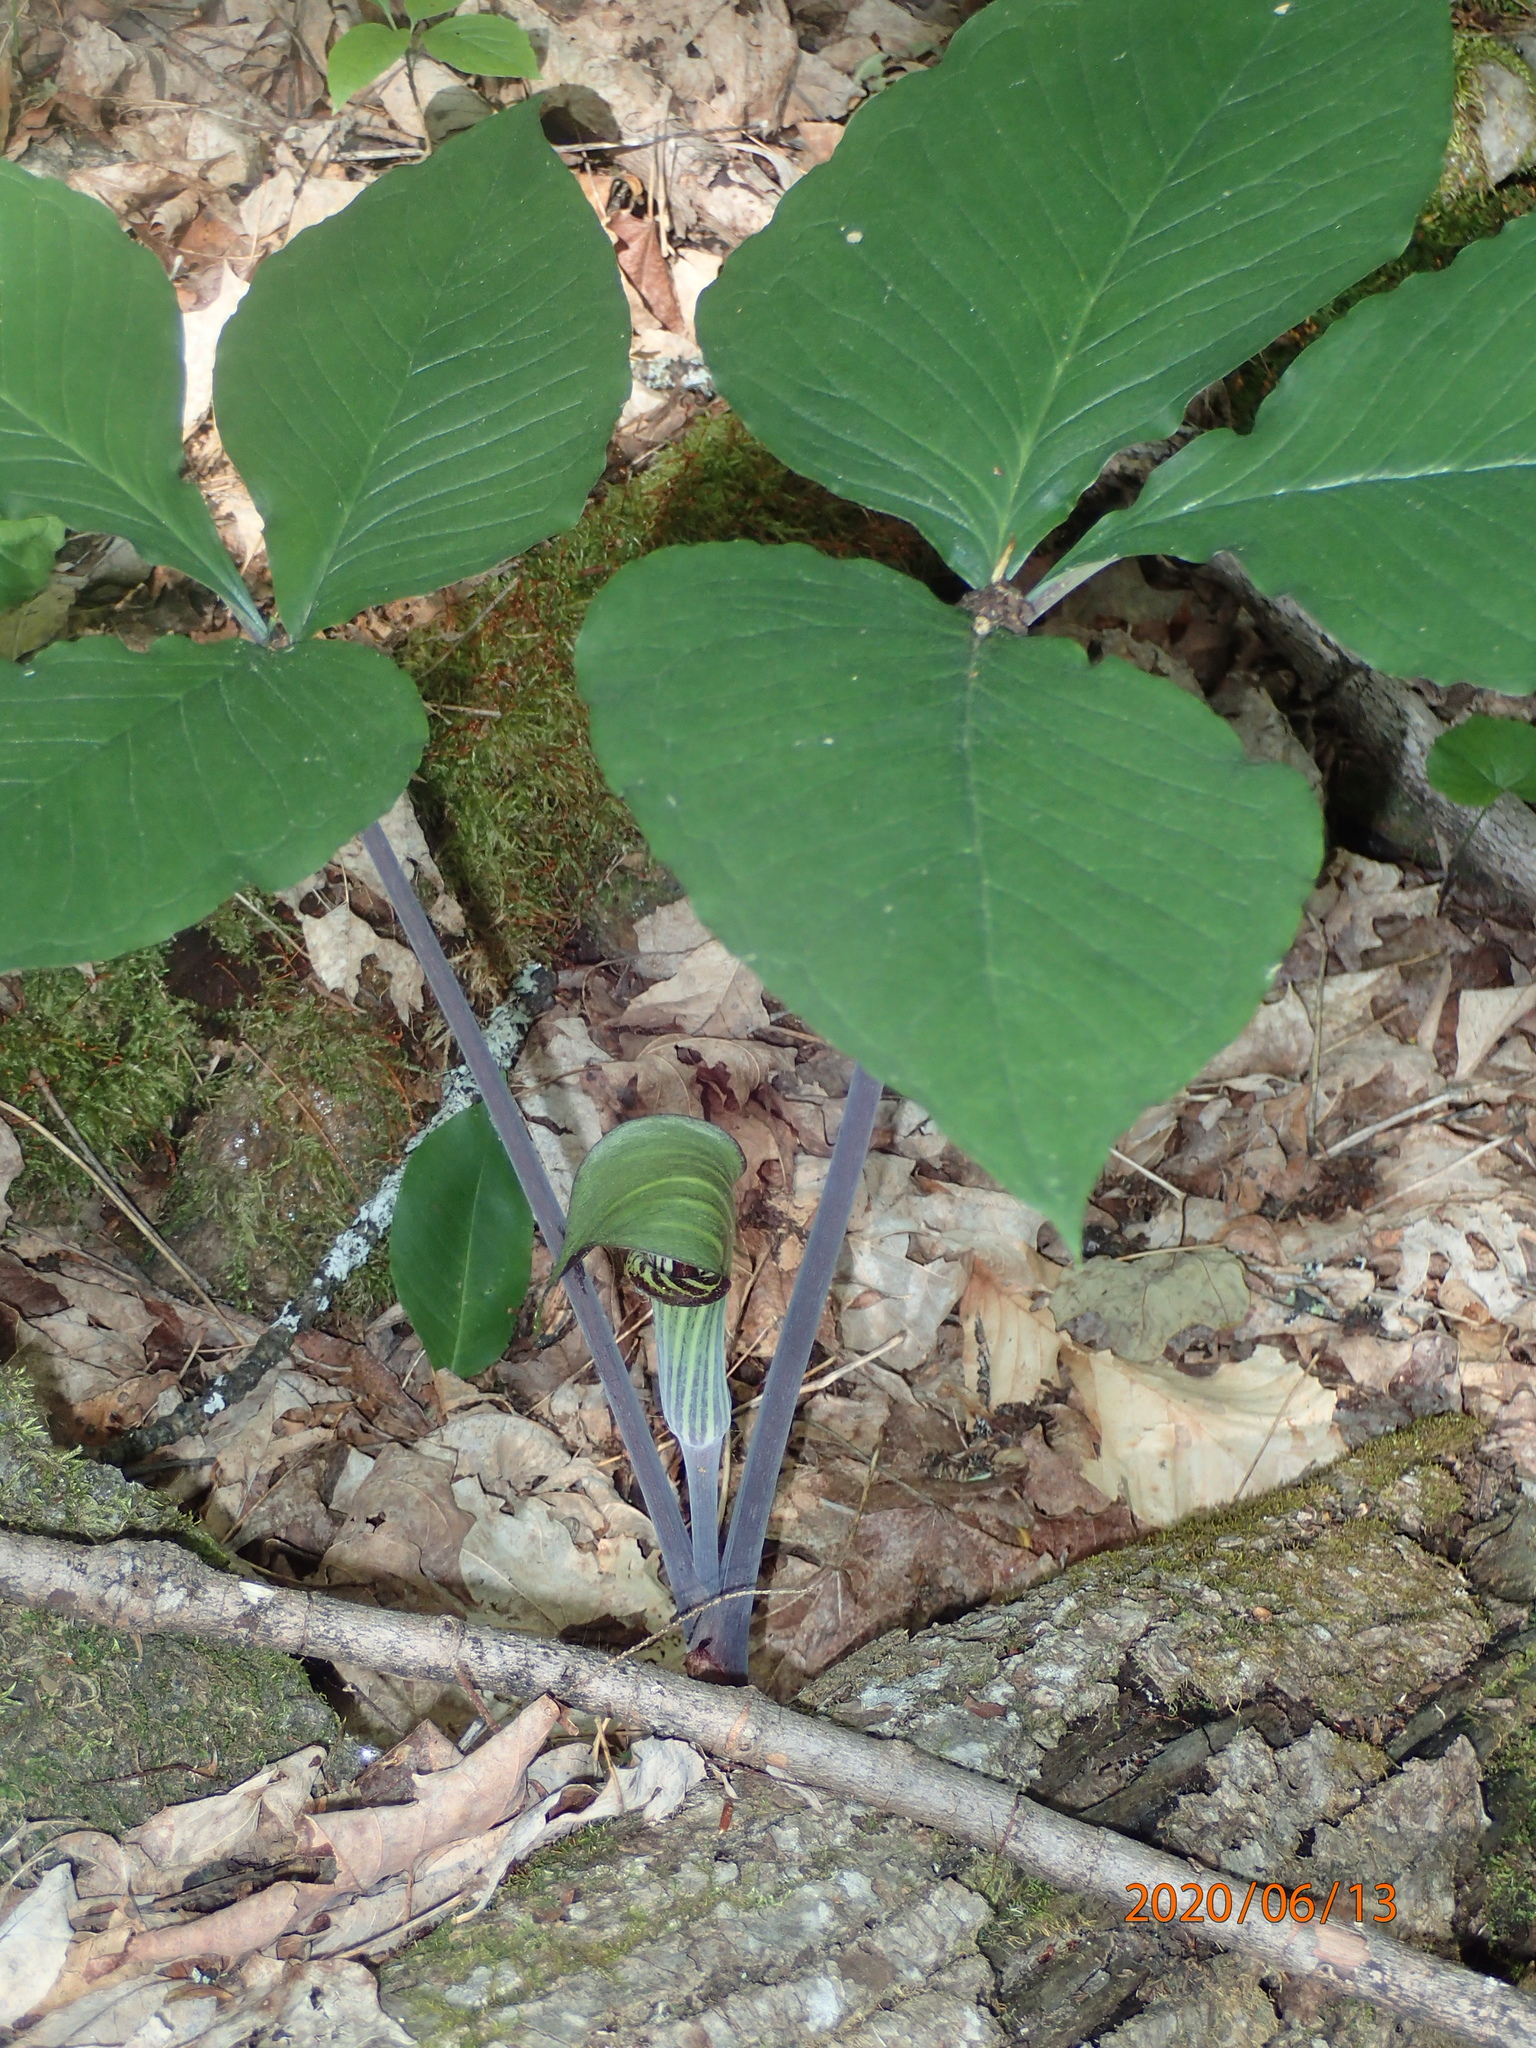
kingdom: Plantae
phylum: Tracheophyta
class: Liliopsida
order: Alismatales
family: Araceae
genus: Arisaema
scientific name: Arisaema triphyllum
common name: Jack-in-the-pulpit
